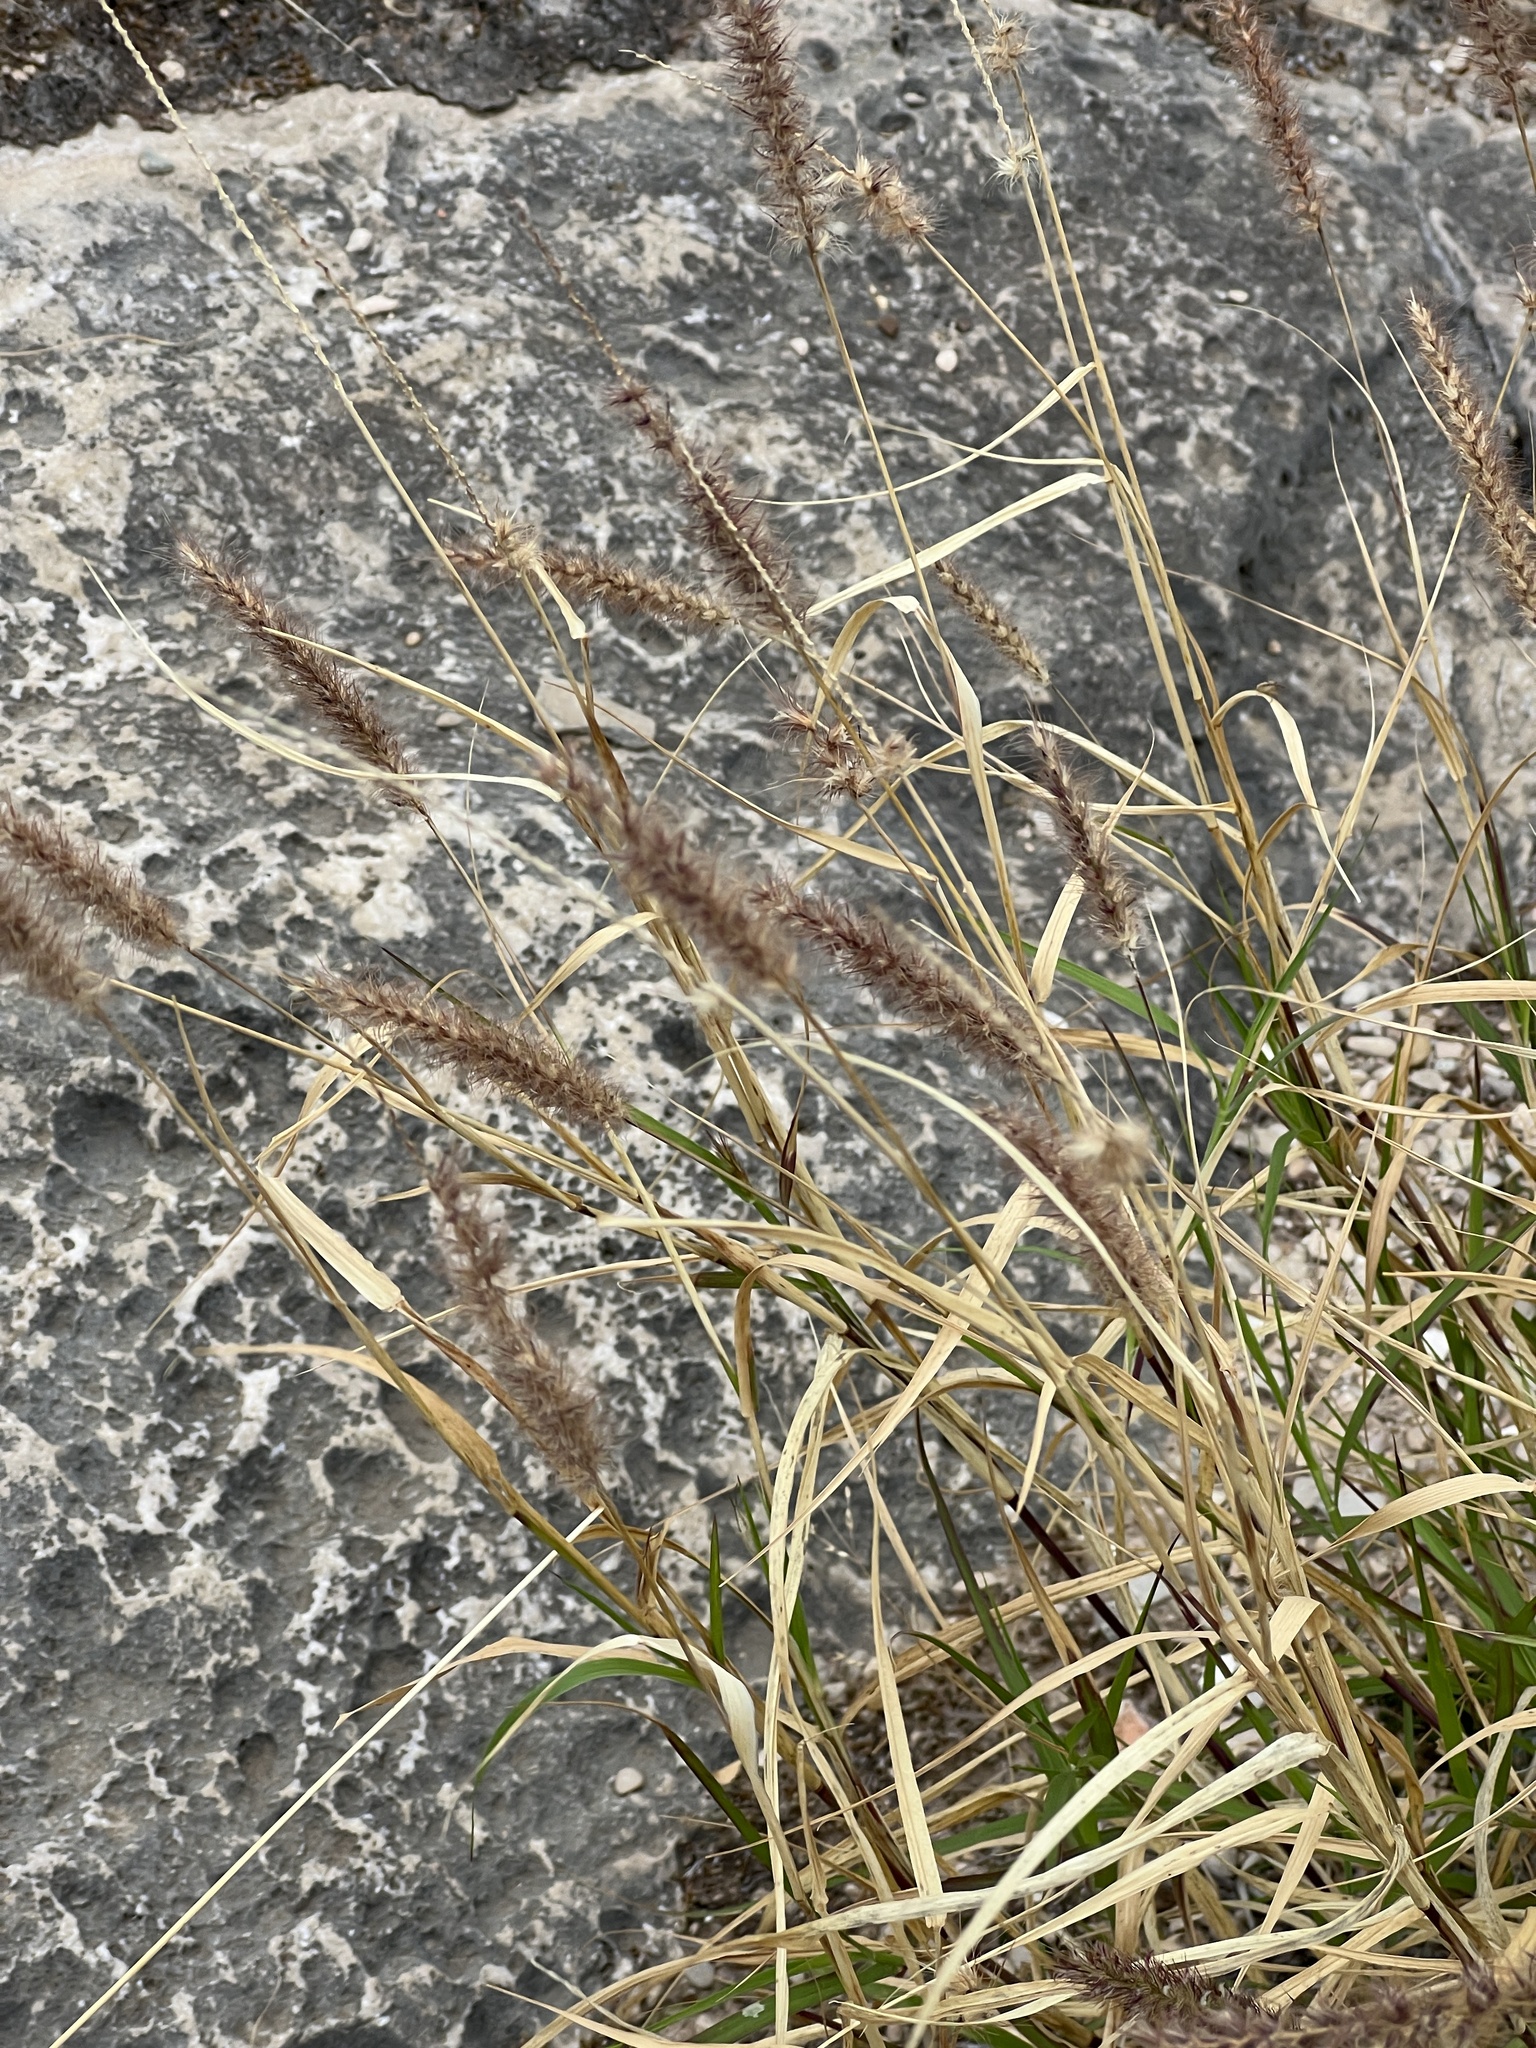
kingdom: Plantae
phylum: Tracheophyta
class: Liliopsida
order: Poales
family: Poaceae
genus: Cenchrus
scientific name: Cenchrus ciliaris
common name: Buffelgrass
